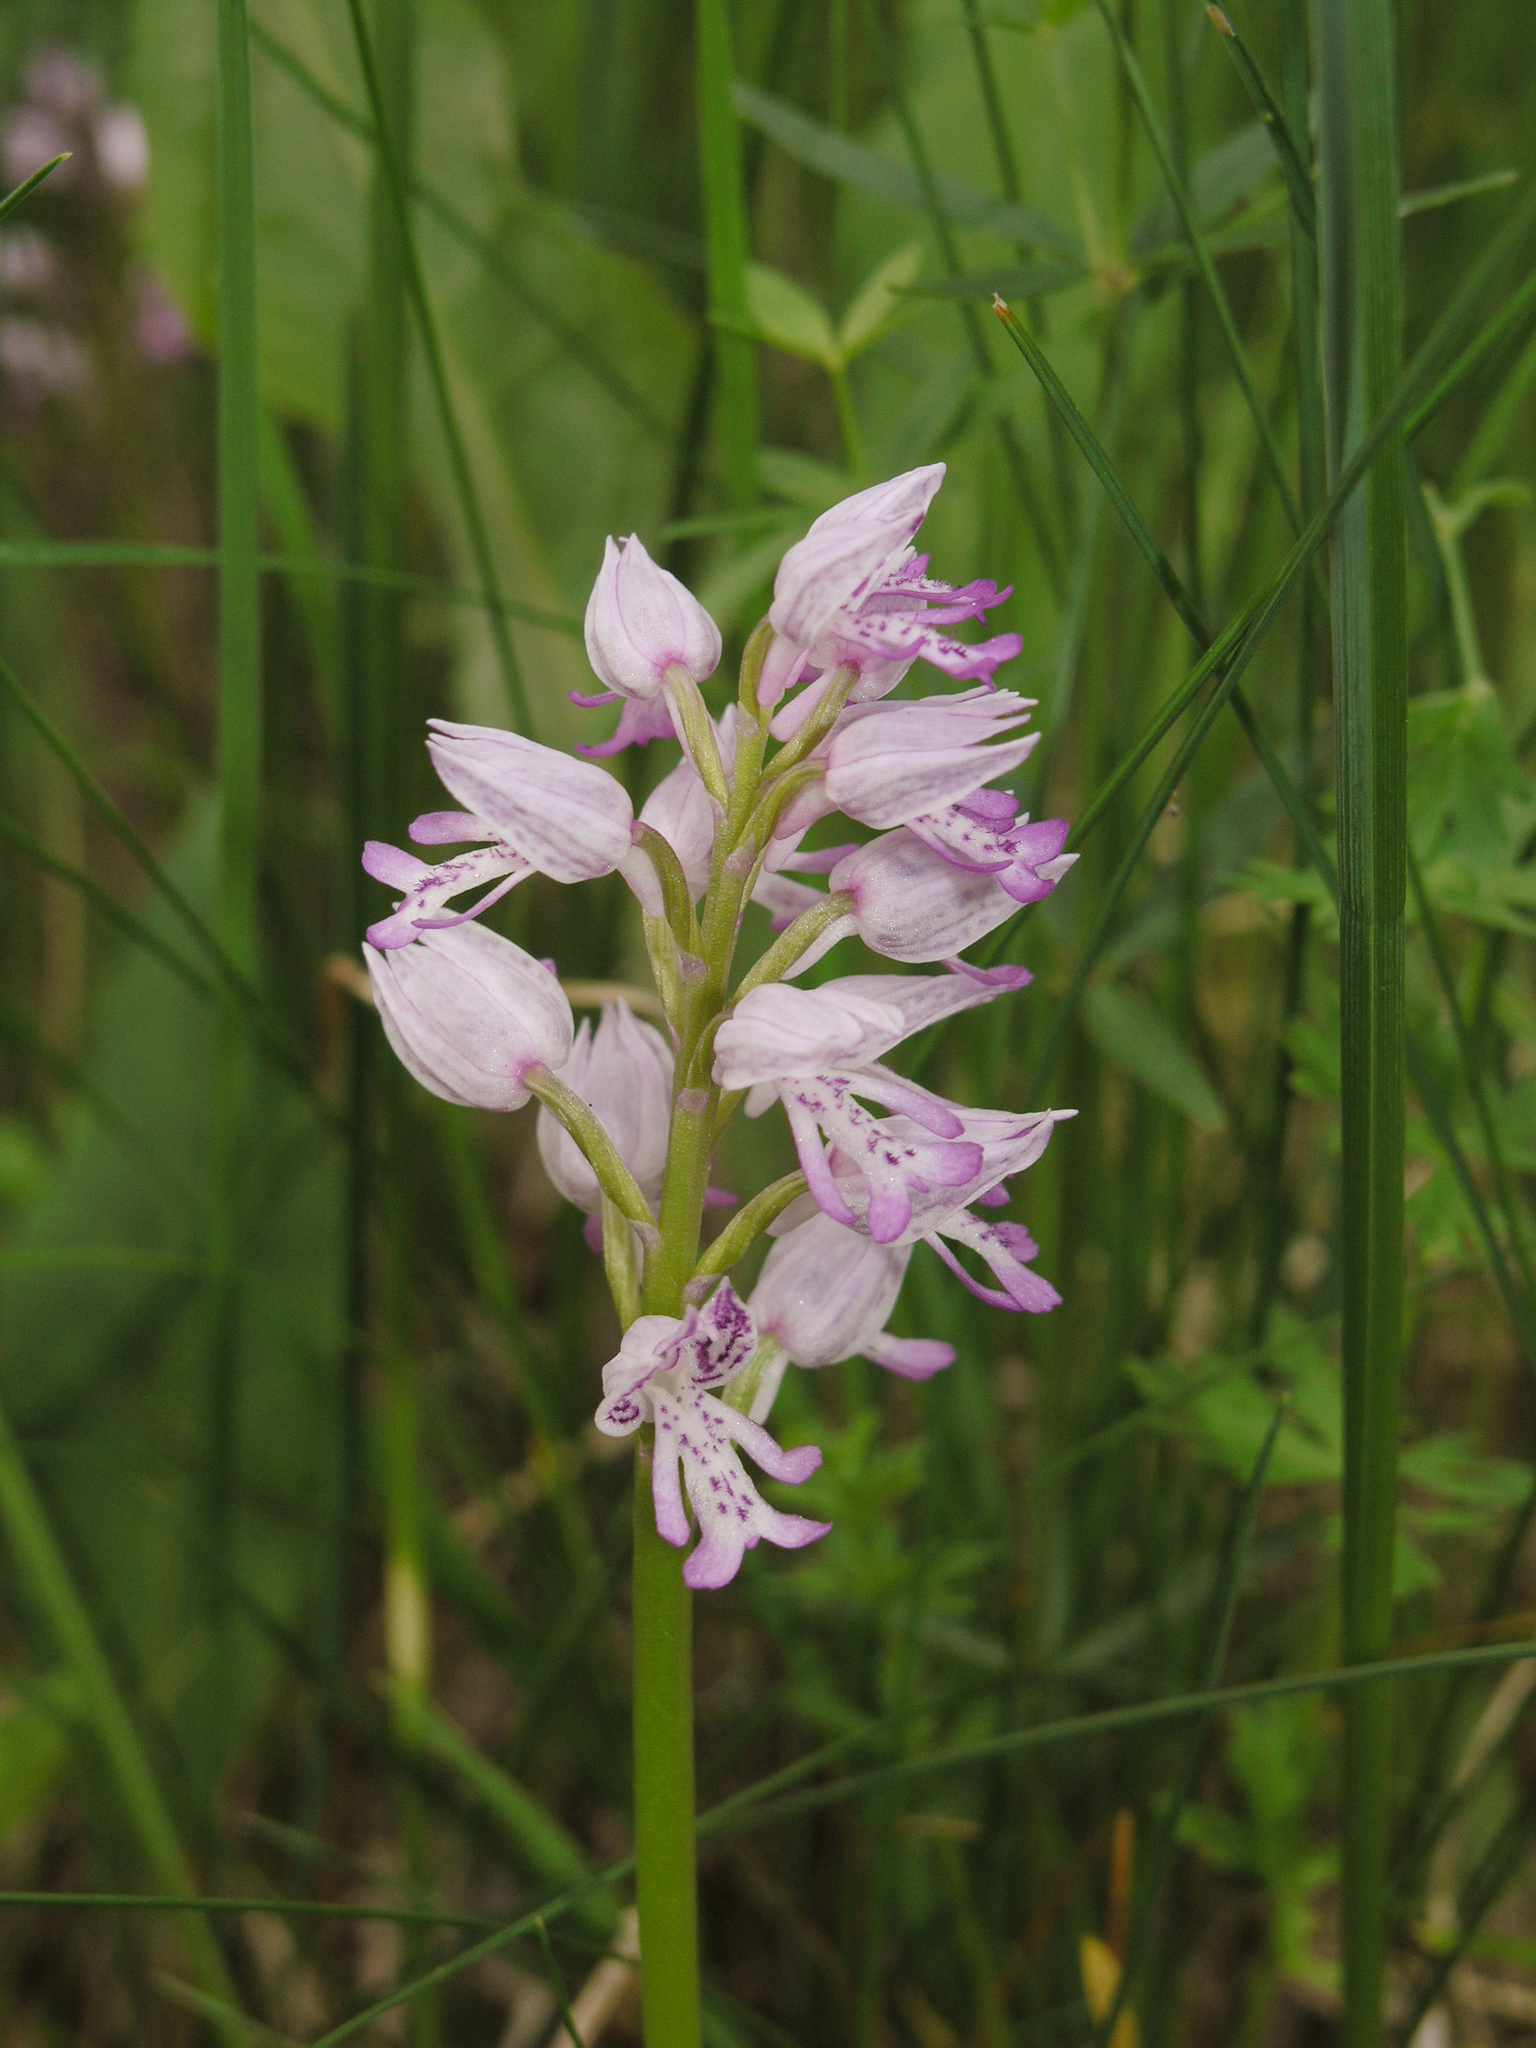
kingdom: Plantae
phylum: Tracheophyta
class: Liliopsida
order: Asparagales
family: Orchidaceae
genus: Orchis
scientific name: Orchis militaris
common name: Military orchid
